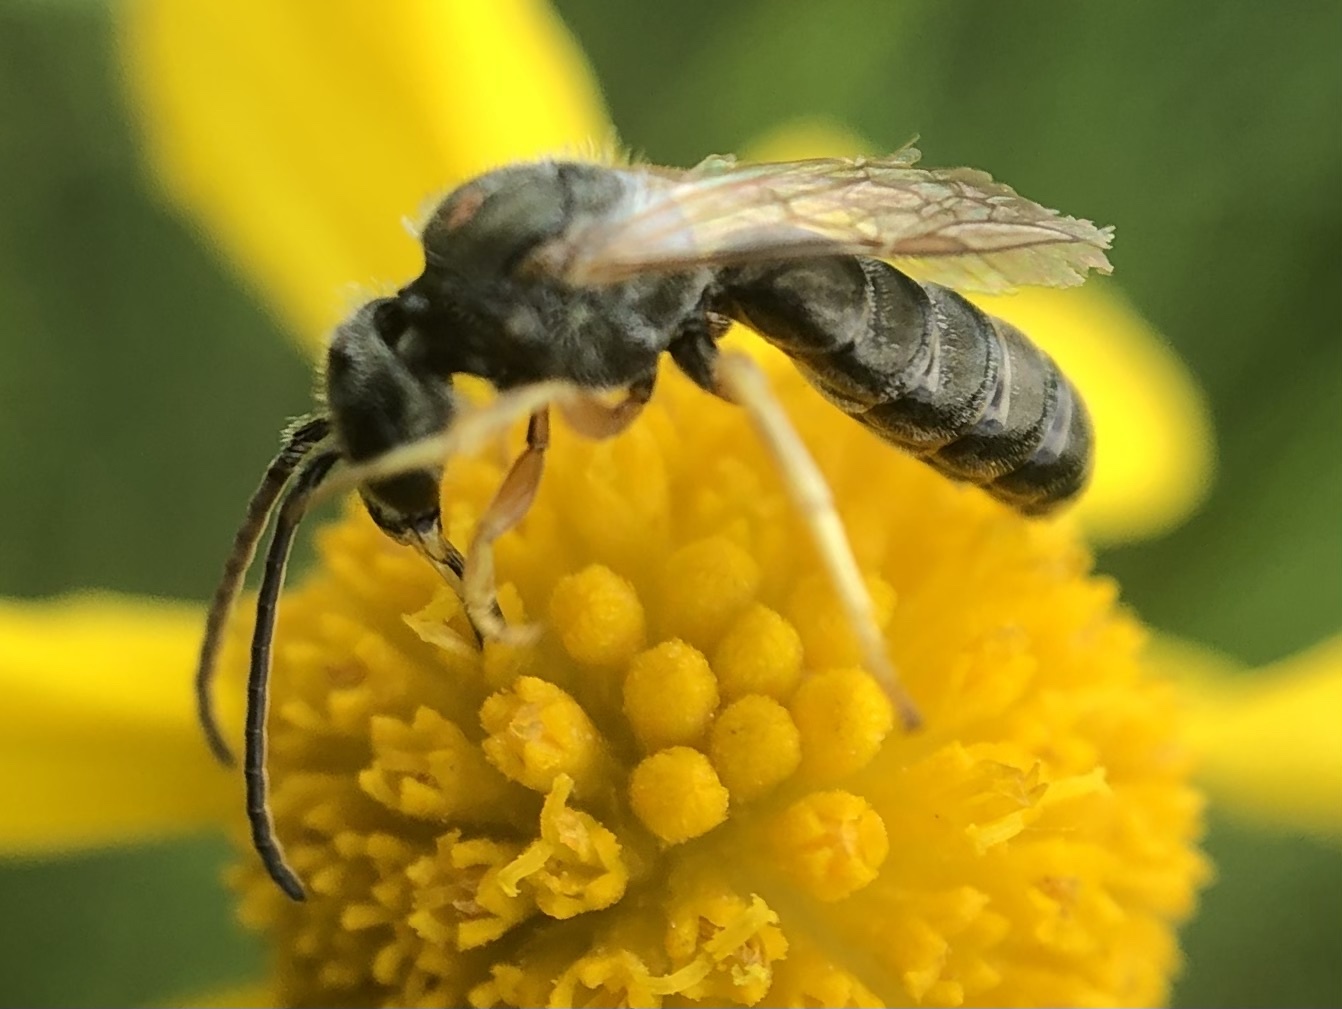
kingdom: Animalia
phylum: Arthropoda
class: Insecta
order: Hymenoptera
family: Halictidae
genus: Halictus
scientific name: Halictus confusus
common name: Southern bronze furrow bee
